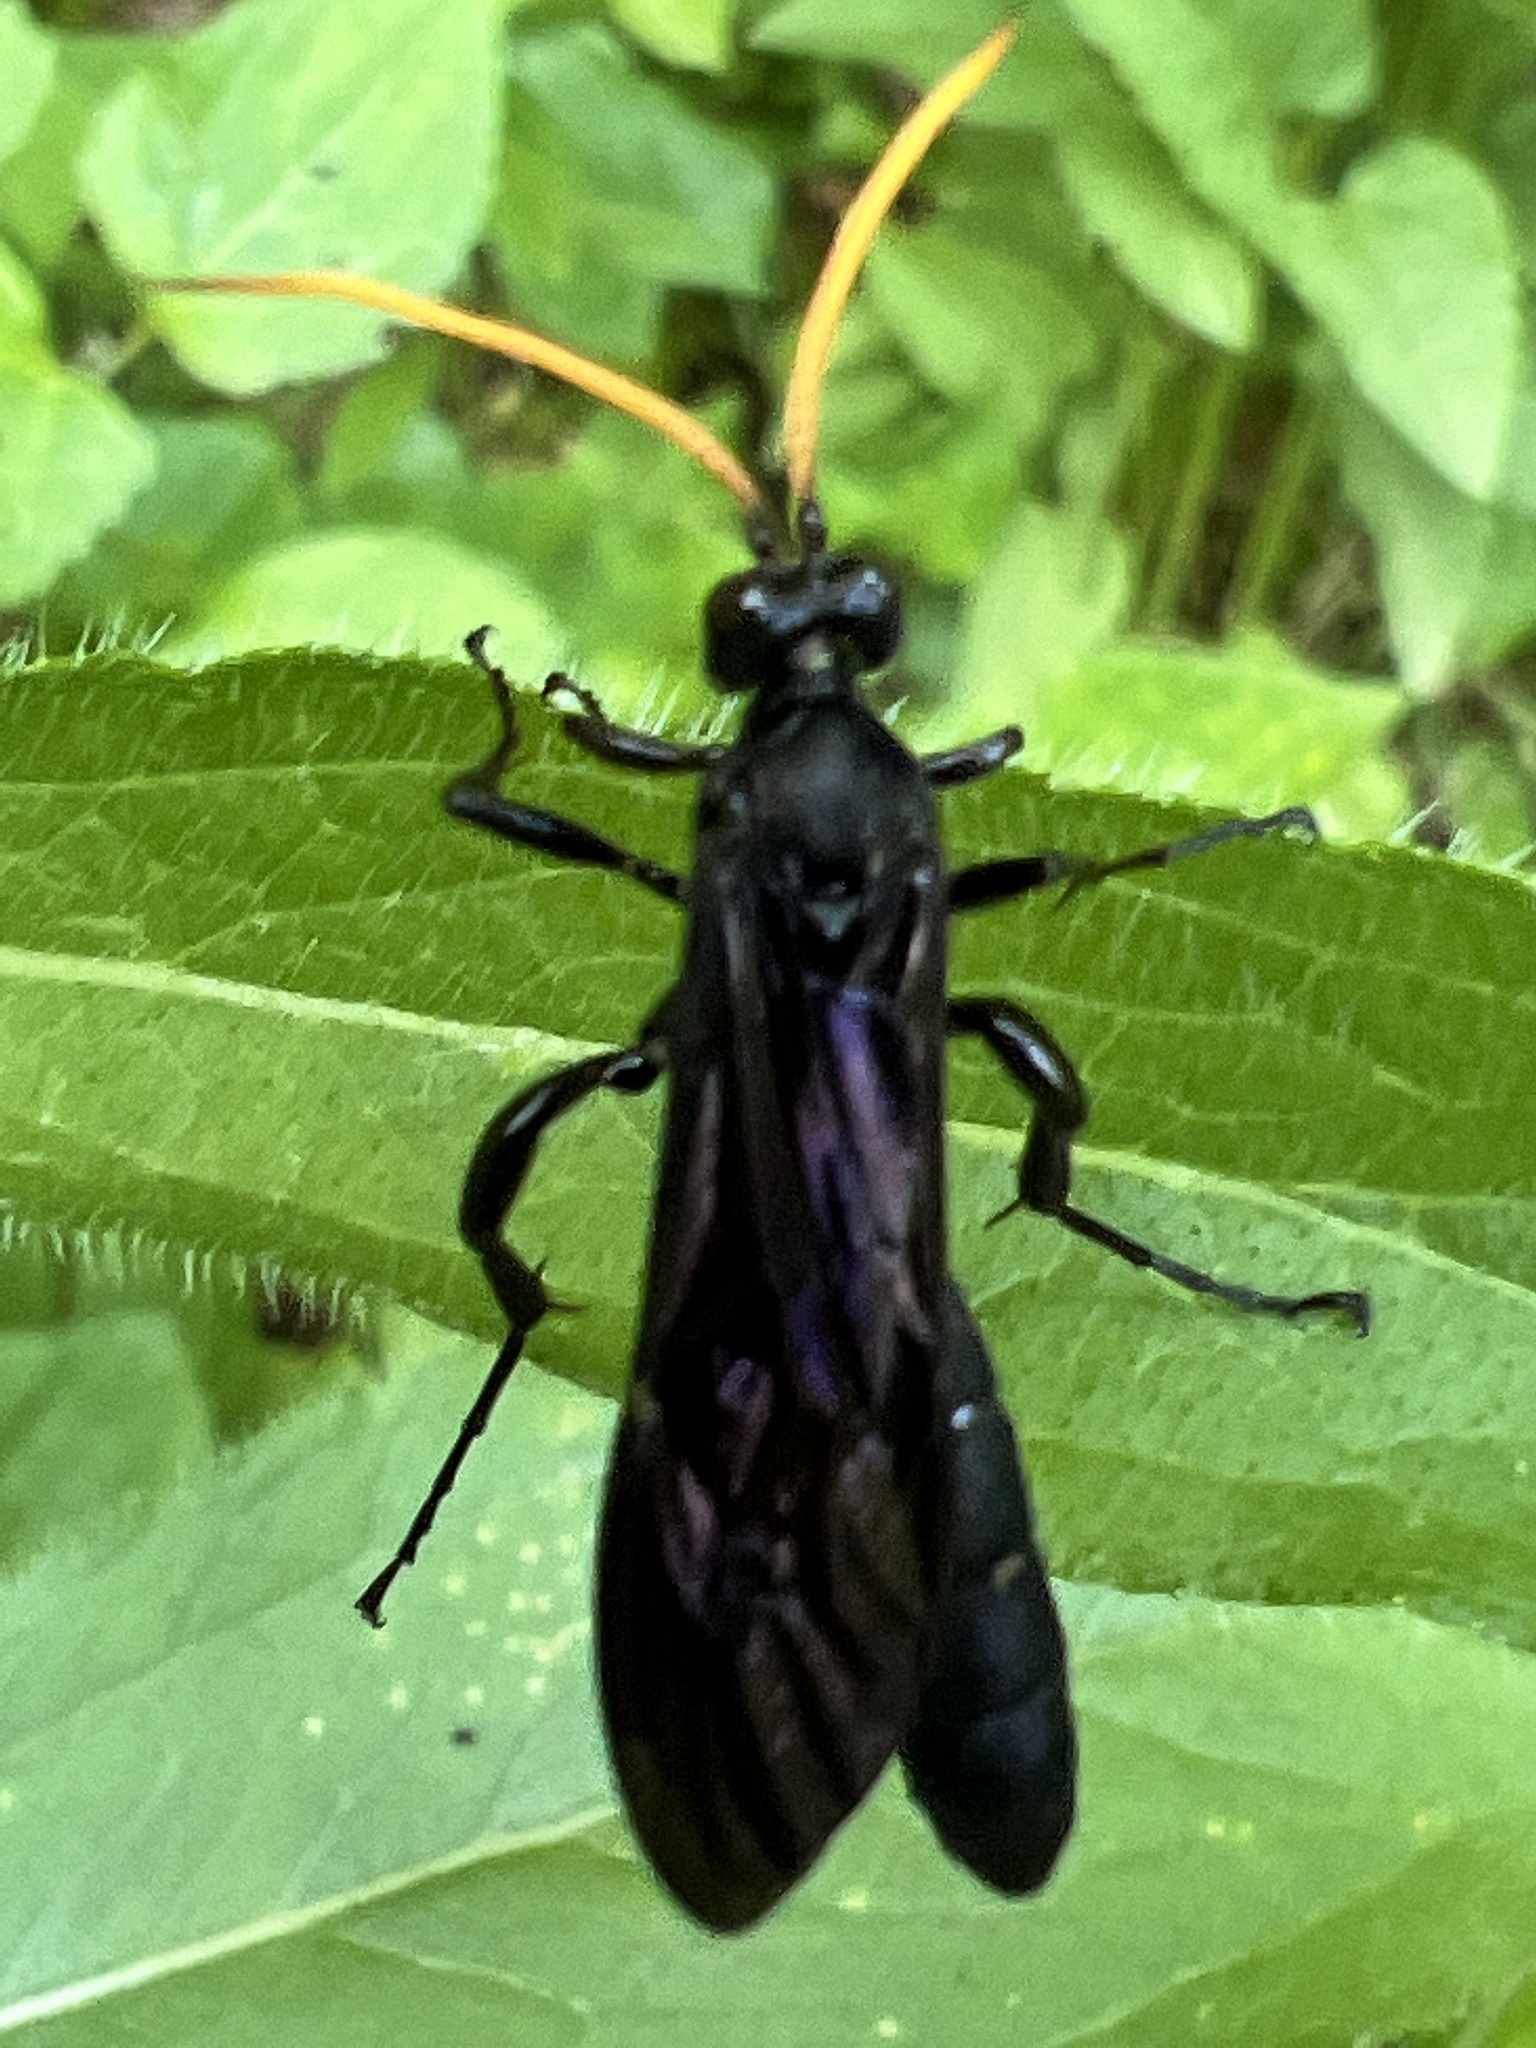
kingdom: Animalia
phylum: Arthropoda
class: Insecta
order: Hymenoptera
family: Ichneumonidae
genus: Gnamptopelta
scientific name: Gnamptopelta obsidianator
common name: Bent-shielded besieger wasp
